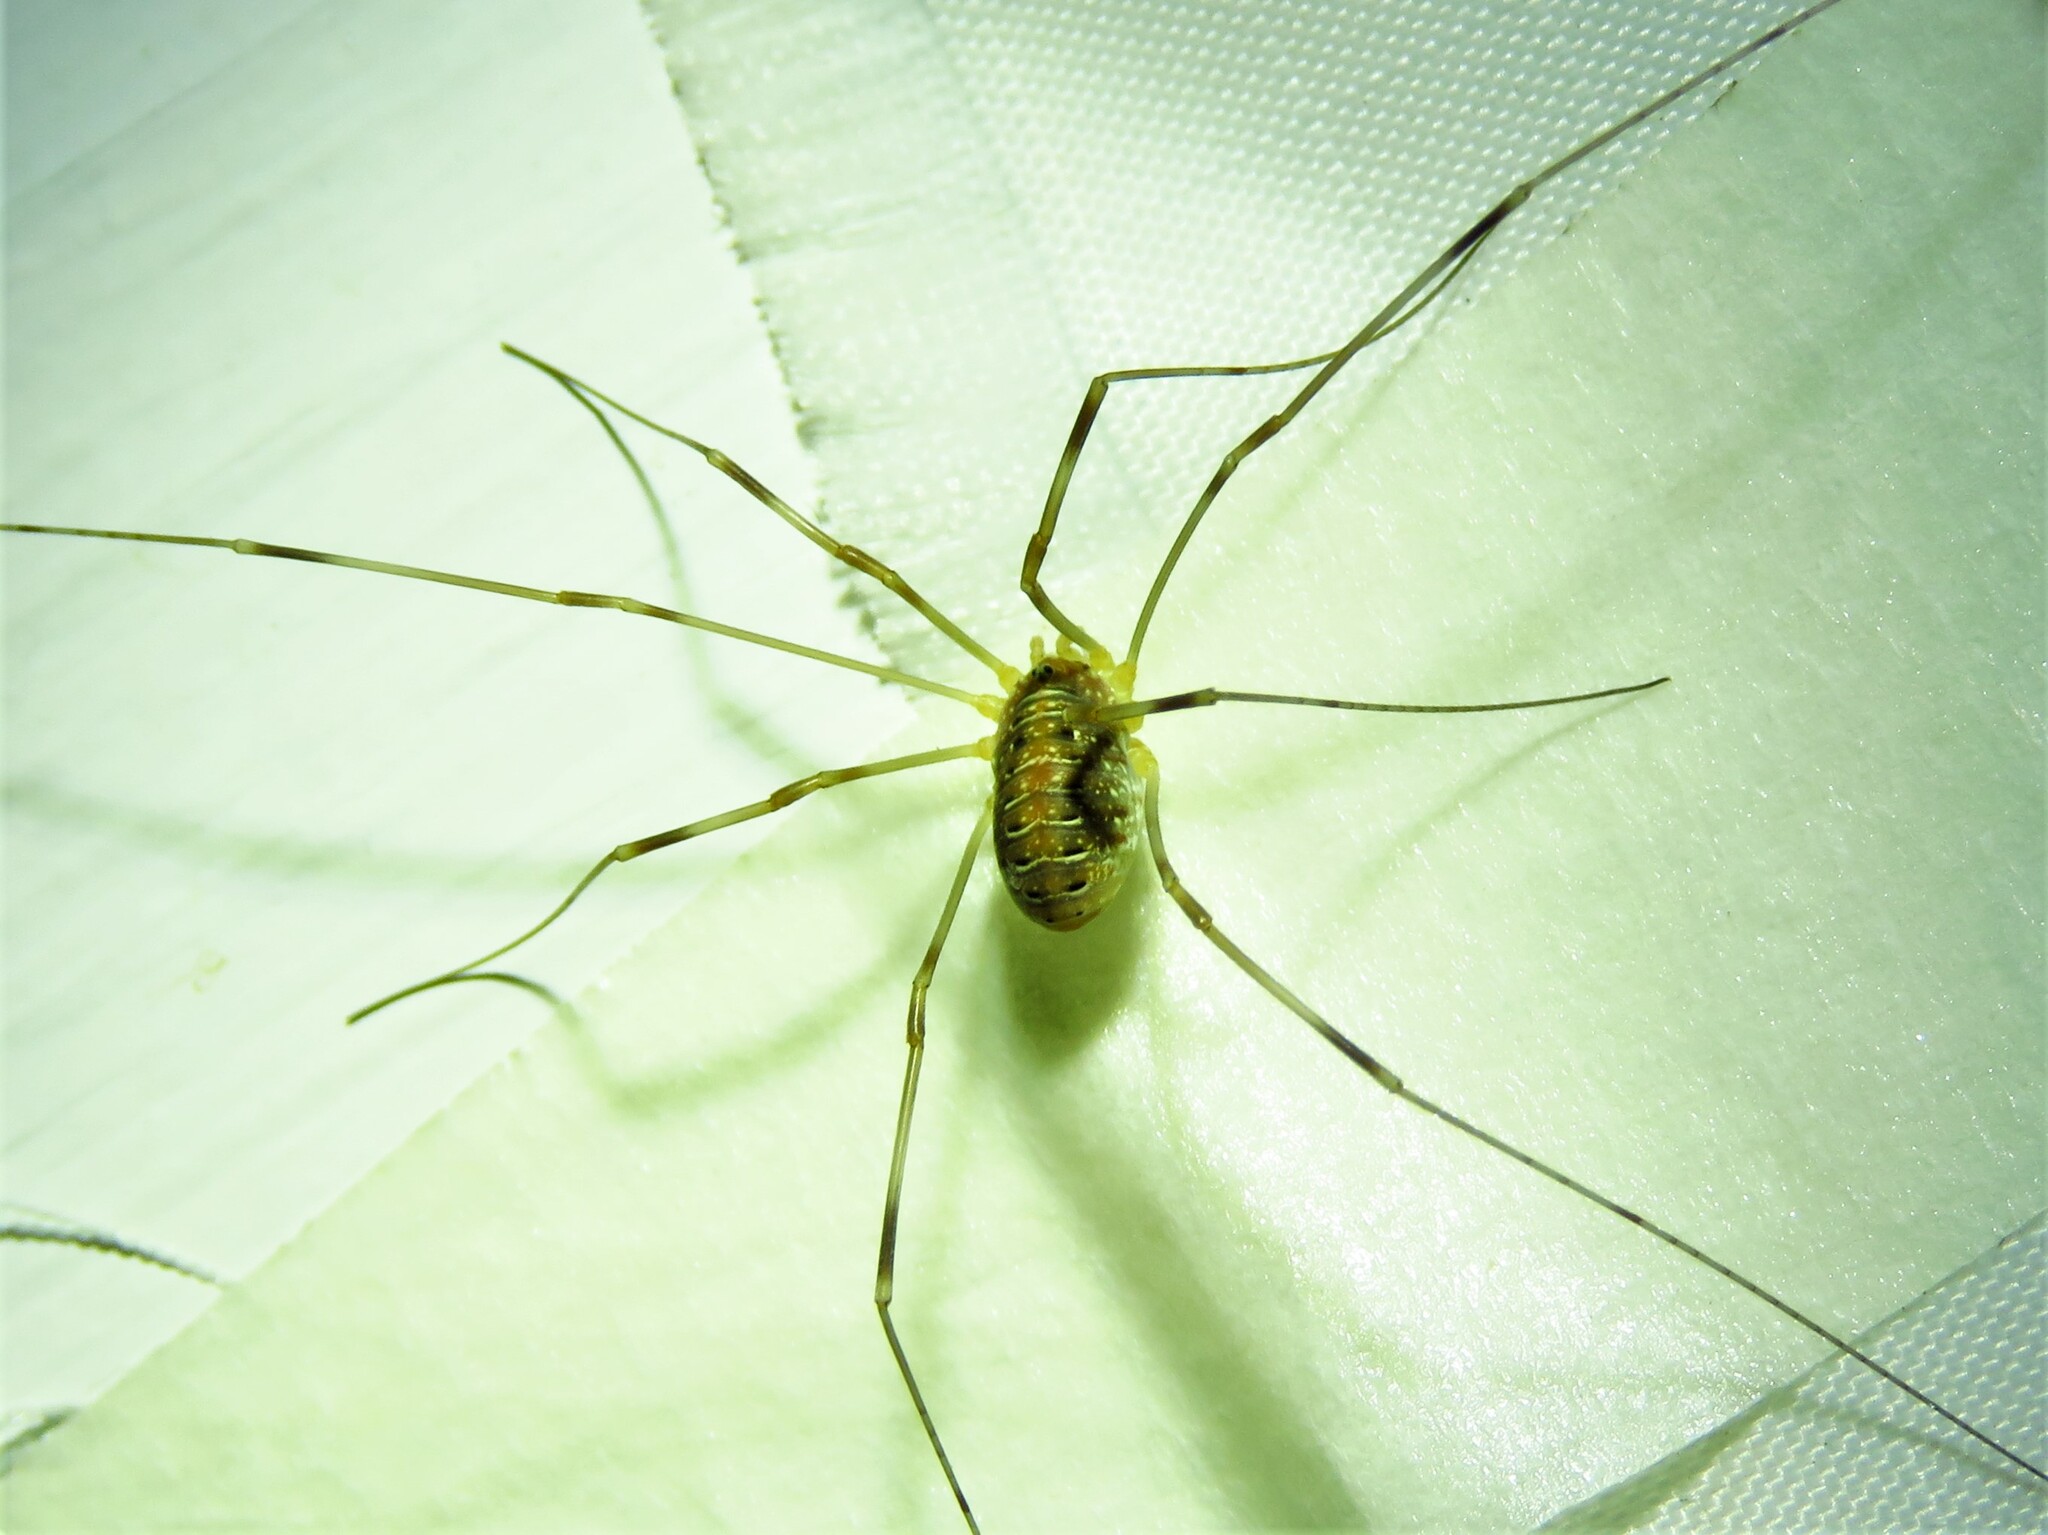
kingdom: Animalia
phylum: Arthropoda
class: Arachnida
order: Opiliones
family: Phalangiidae
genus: Opilio
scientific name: Opilio canestrinii
